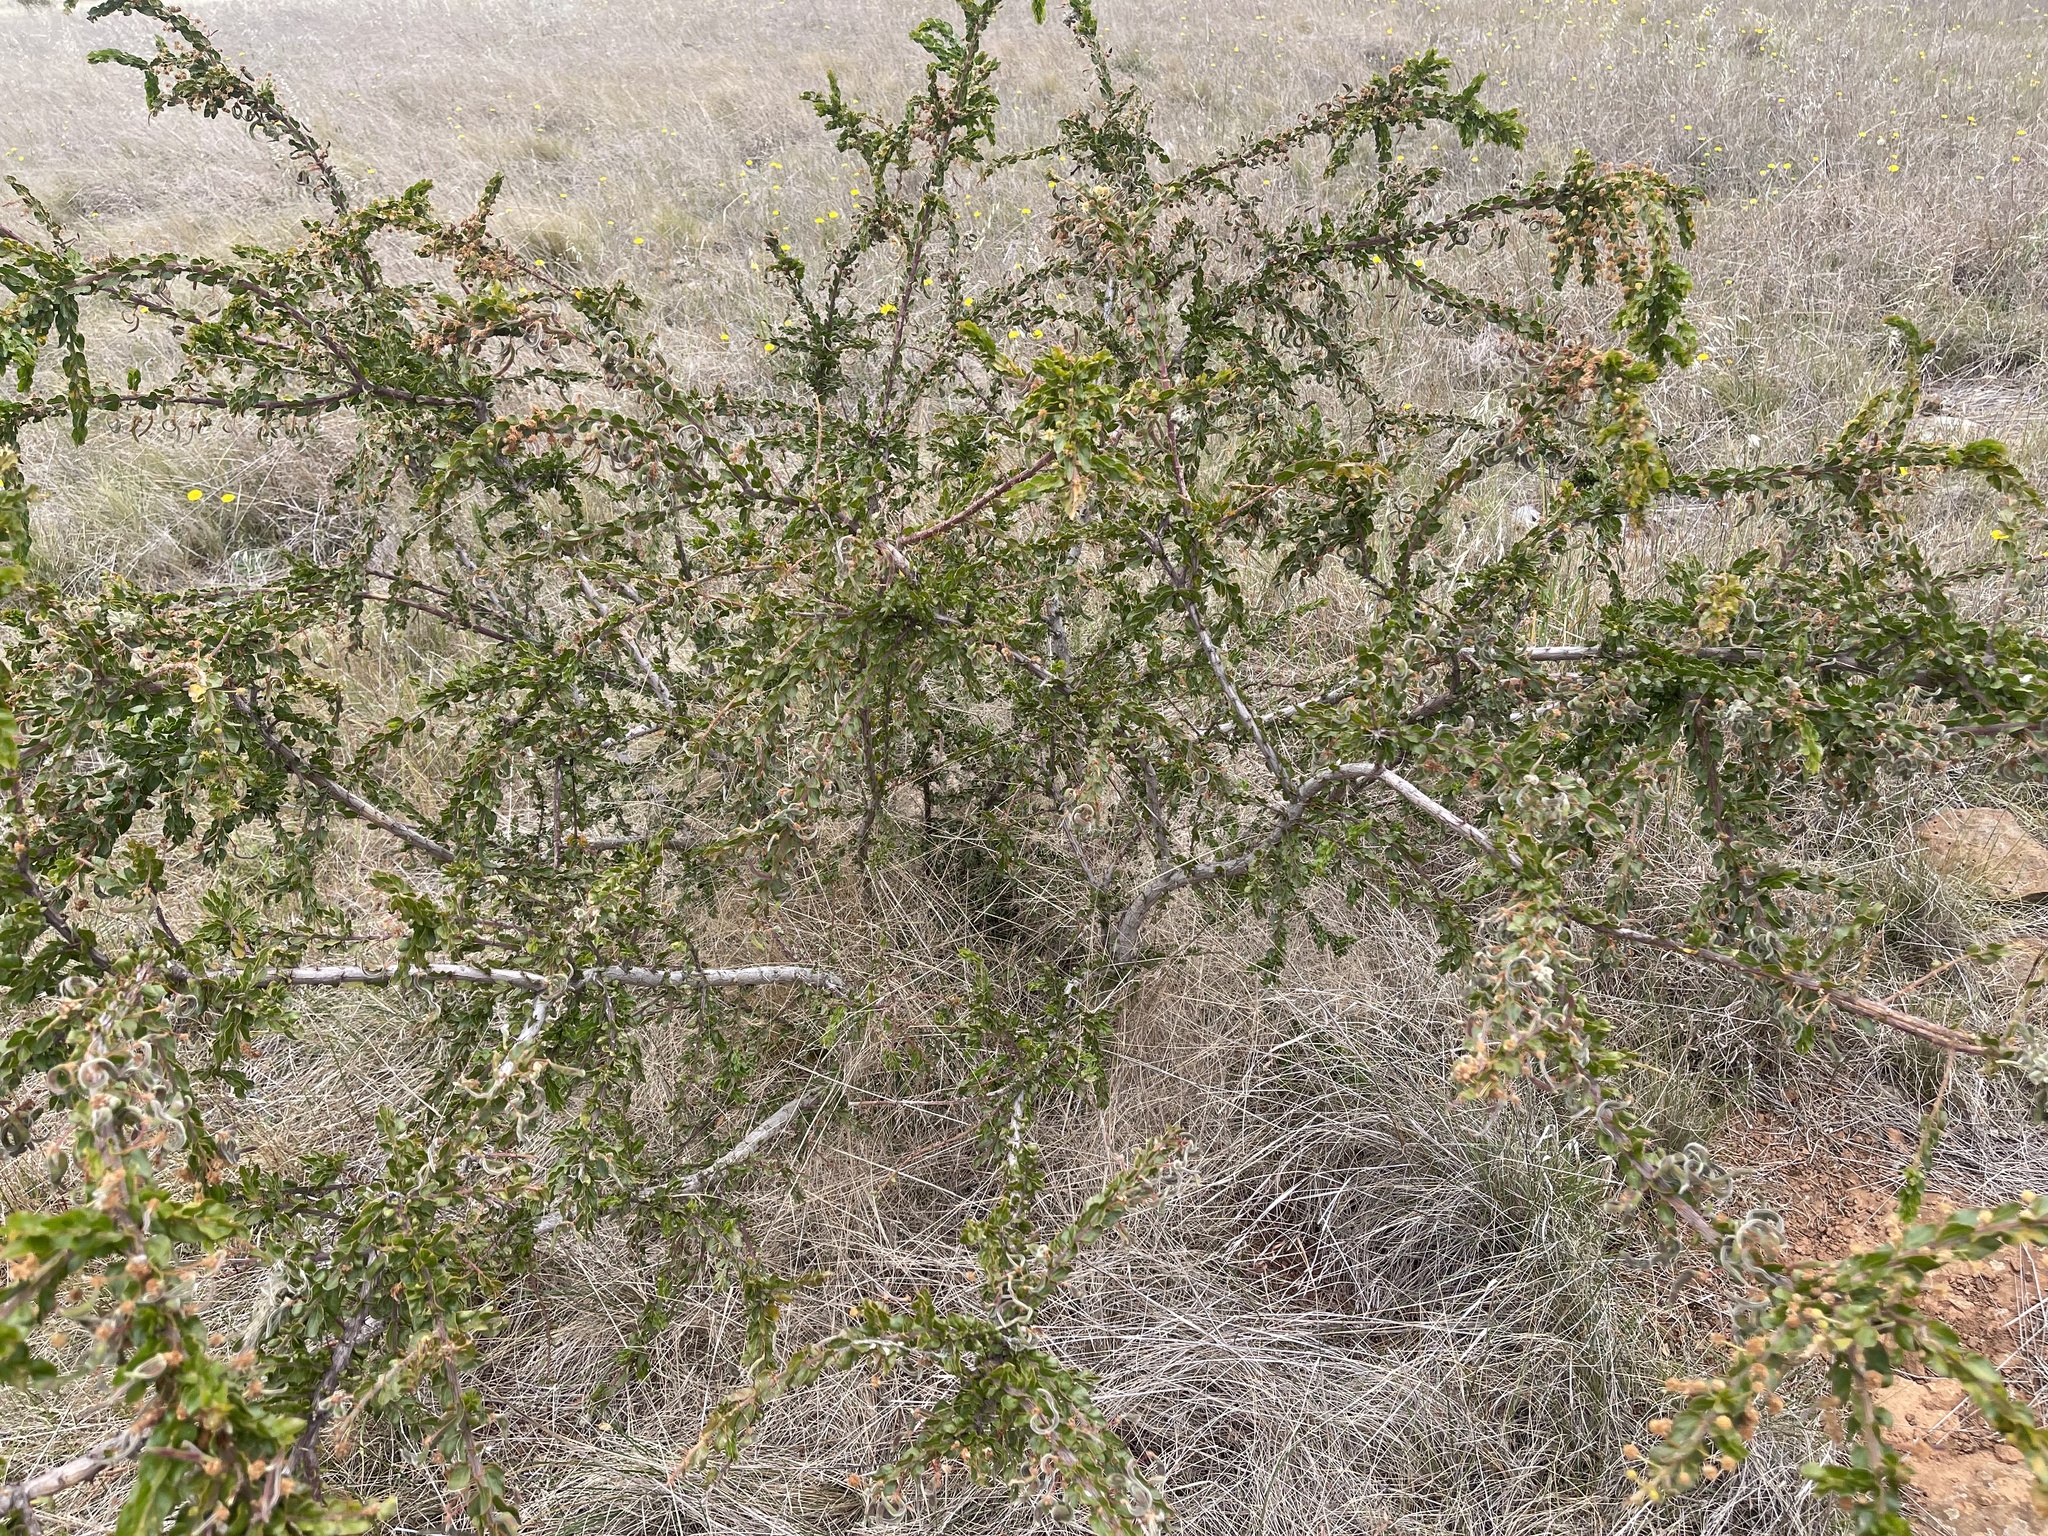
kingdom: Plantae
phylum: Tracheophyta
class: Magnoliopsida
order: Fabales
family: Fabaceae
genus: Acacia
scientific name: Acacia paradoxa
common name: Paradox acacia
